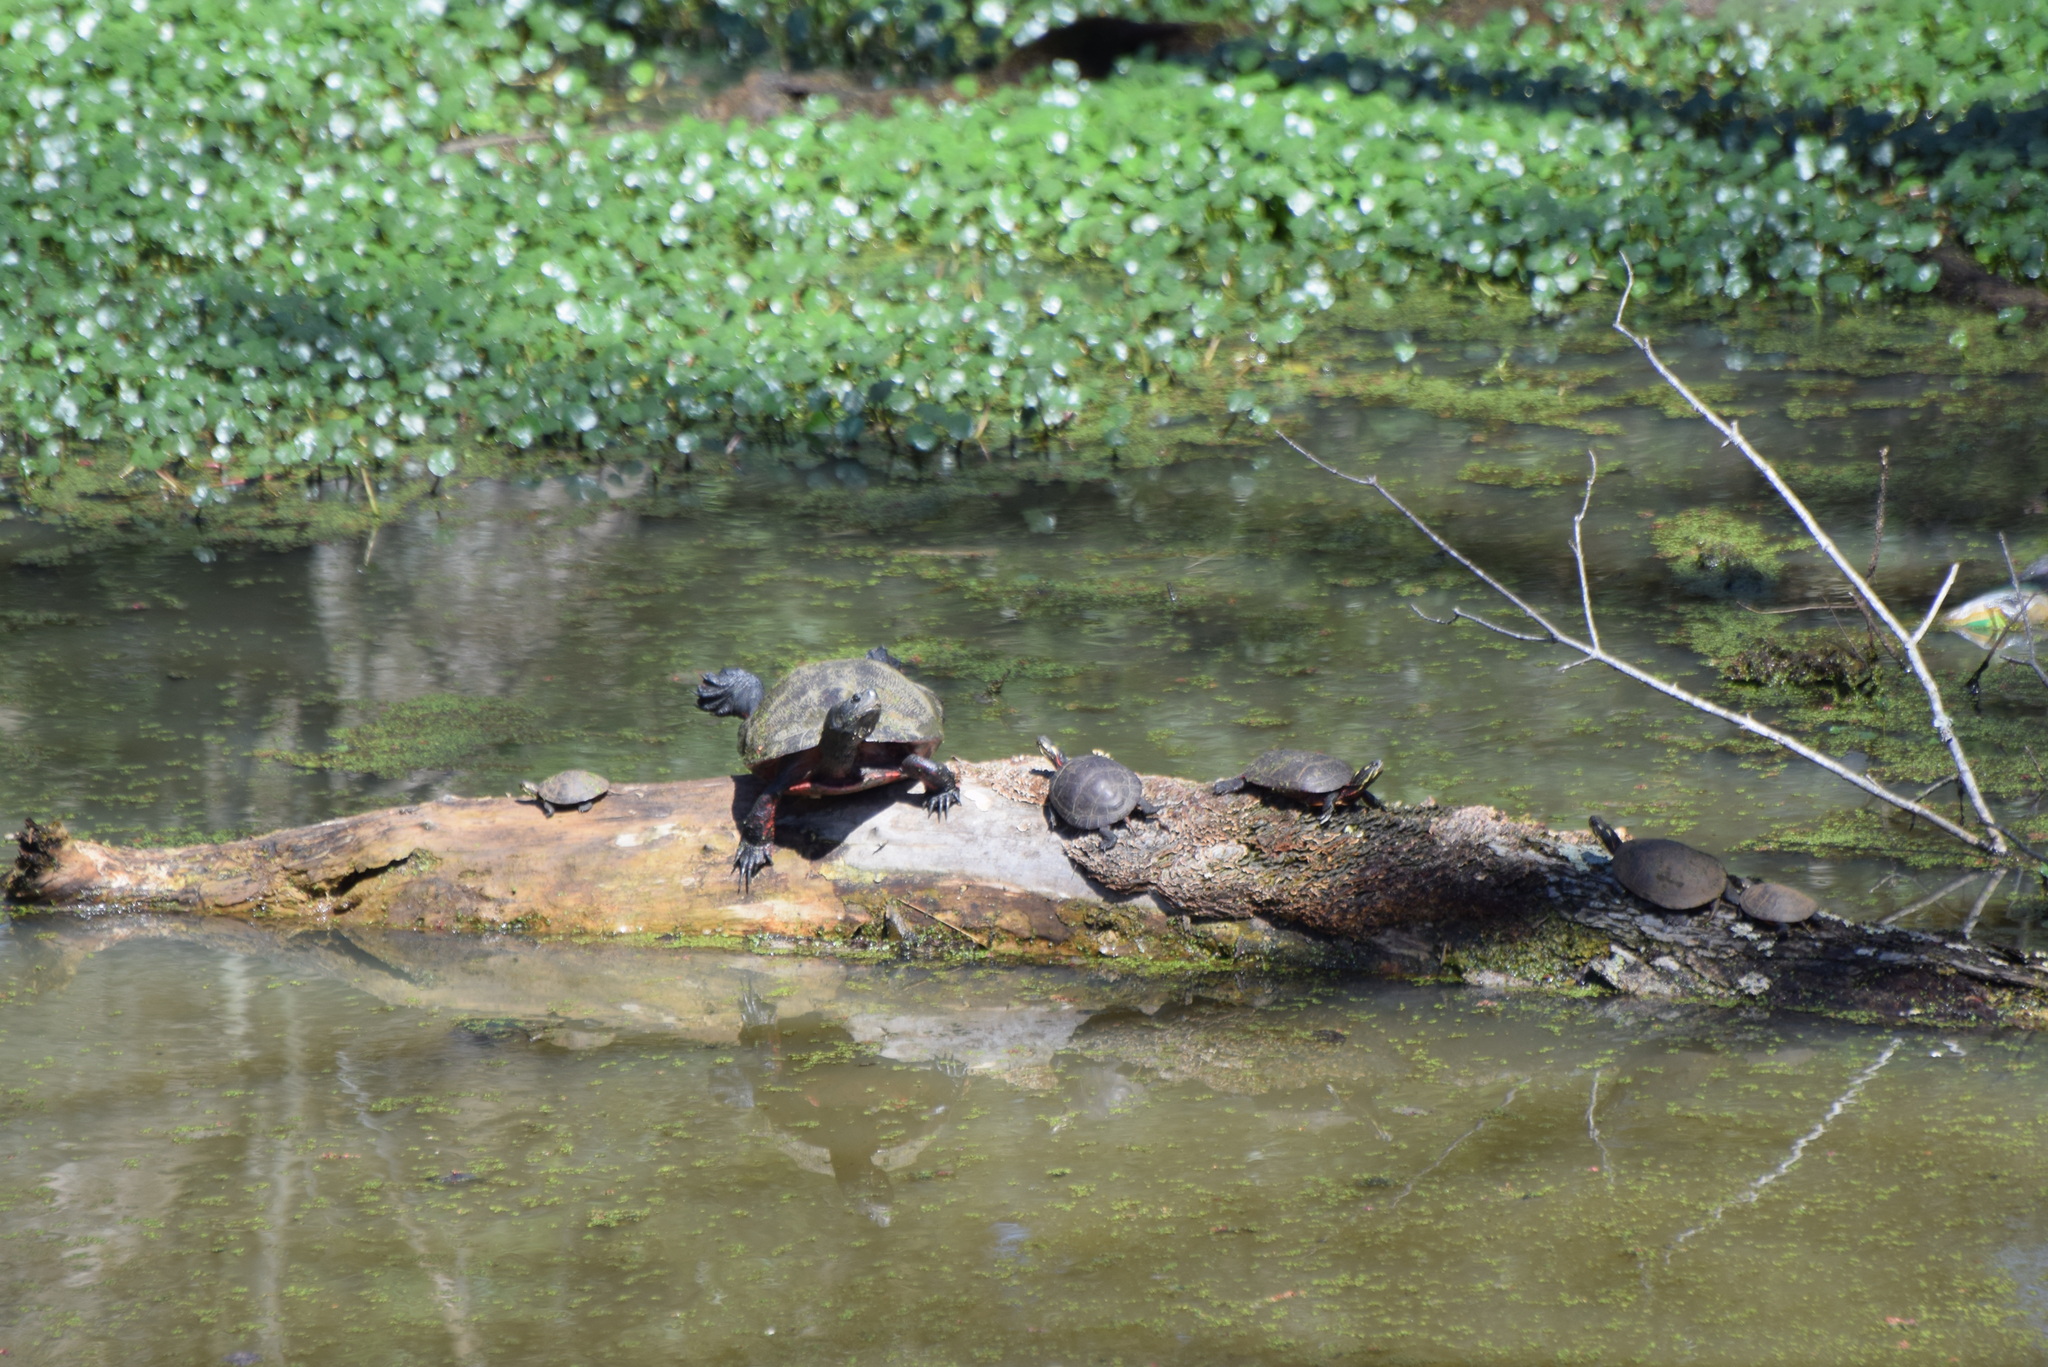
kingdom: Animalia
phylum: Chordata
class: Testudines
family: Emydidae
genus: Chrysemys
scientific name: Chrysemys picta
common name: Painted turtle
